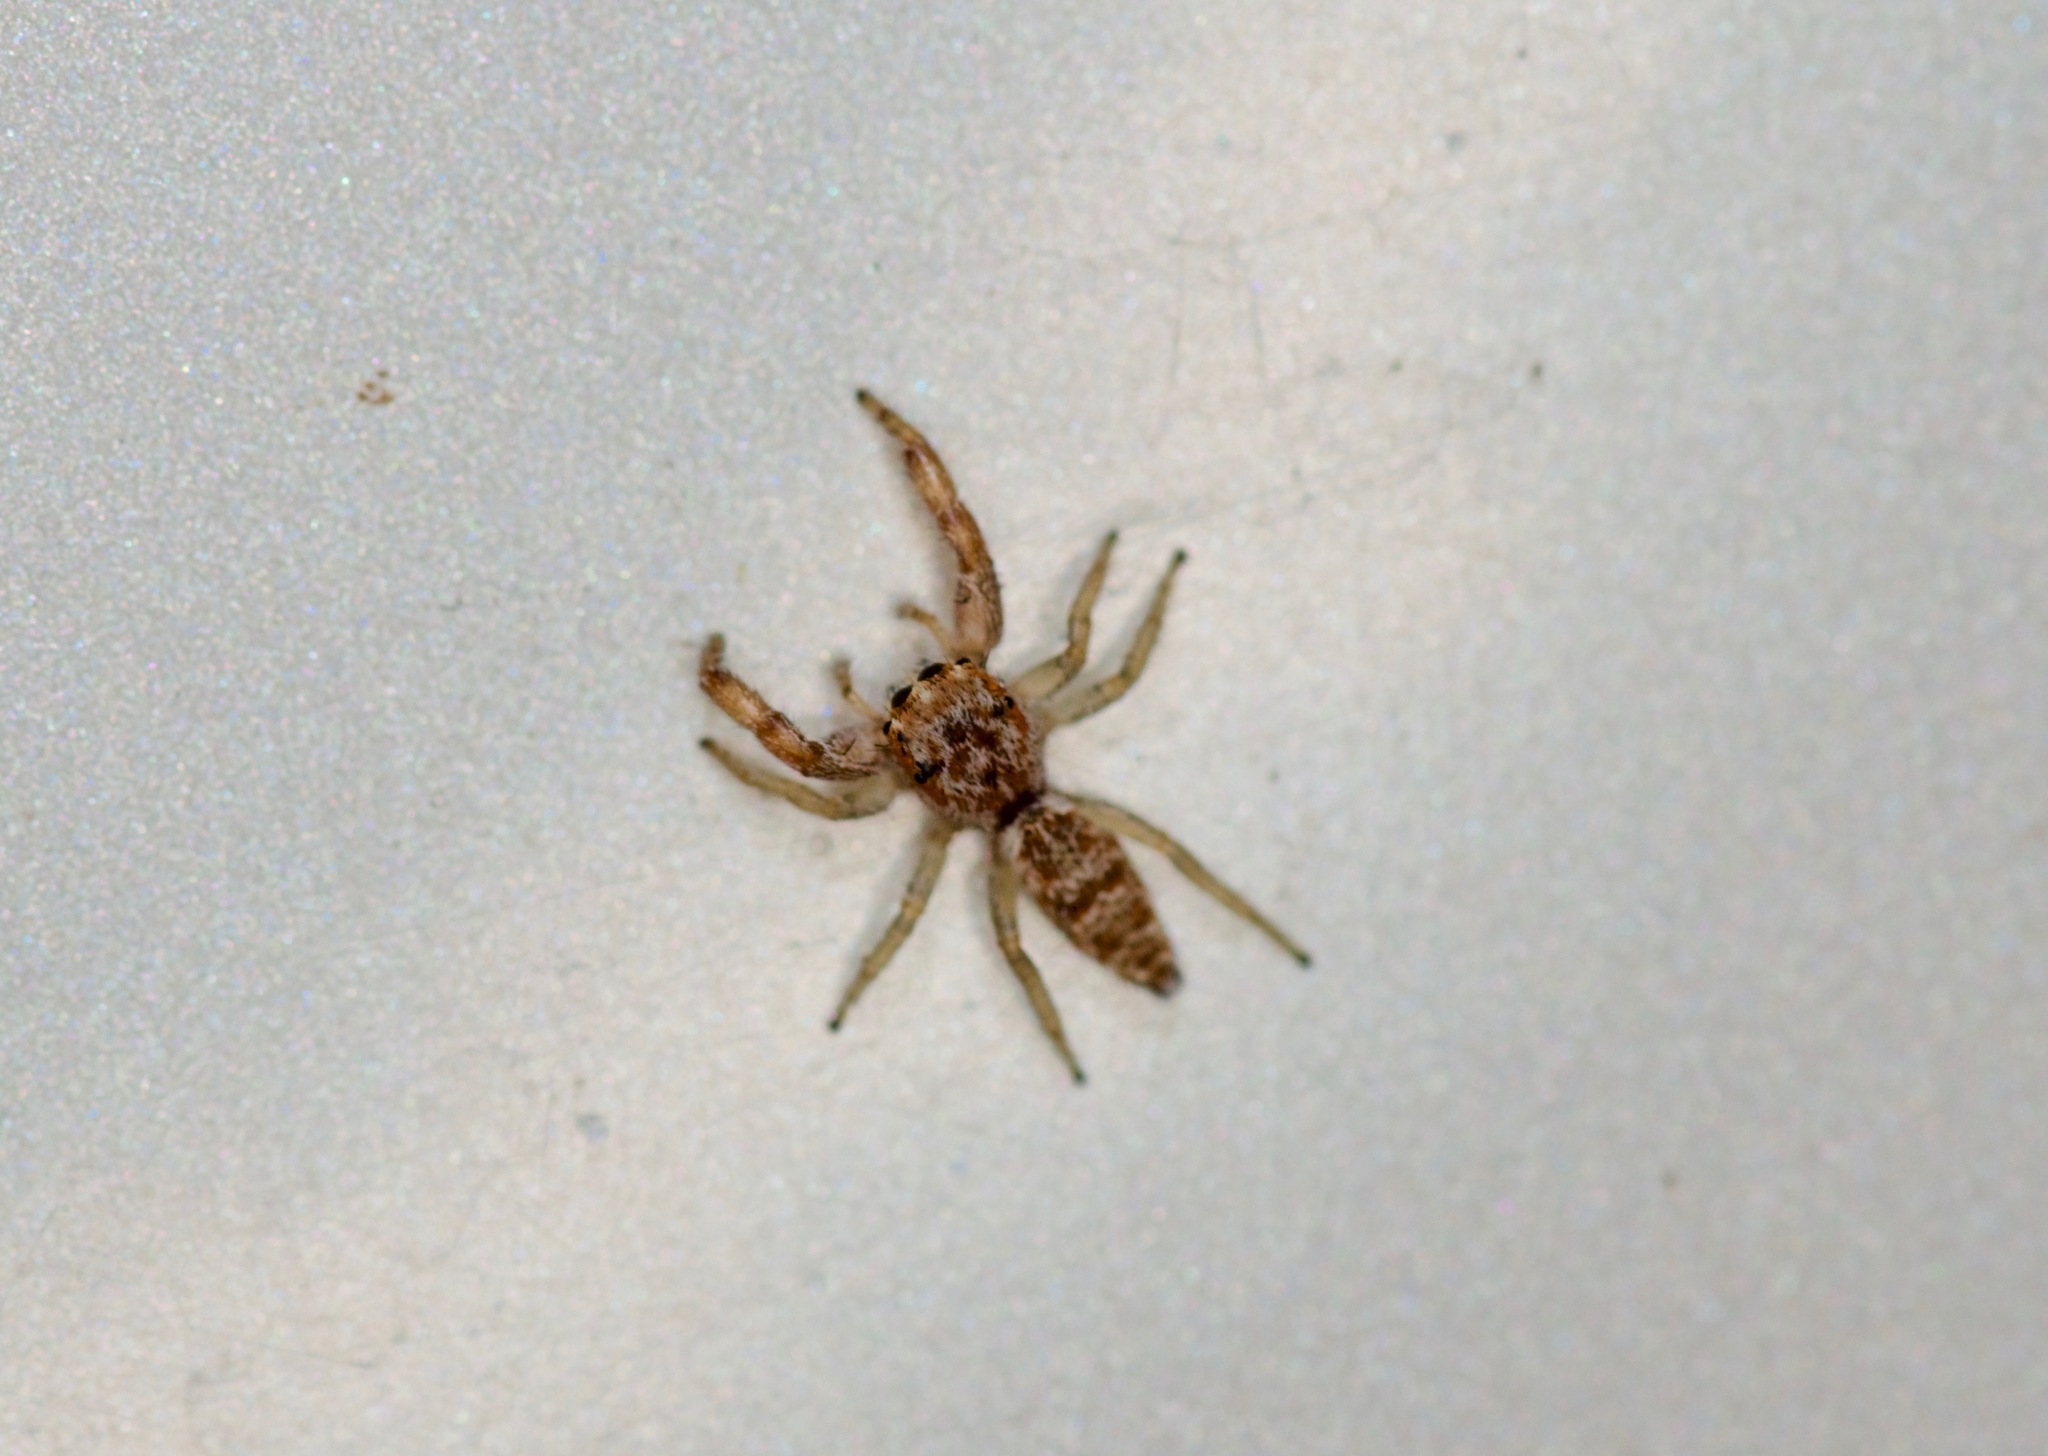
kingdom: Animalia
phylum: Arthropoda
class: Arachnida
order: Araneae
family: Salticidae
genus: Hentzia
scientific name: Hentzia palmarum
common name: Common hentz jumping spider
